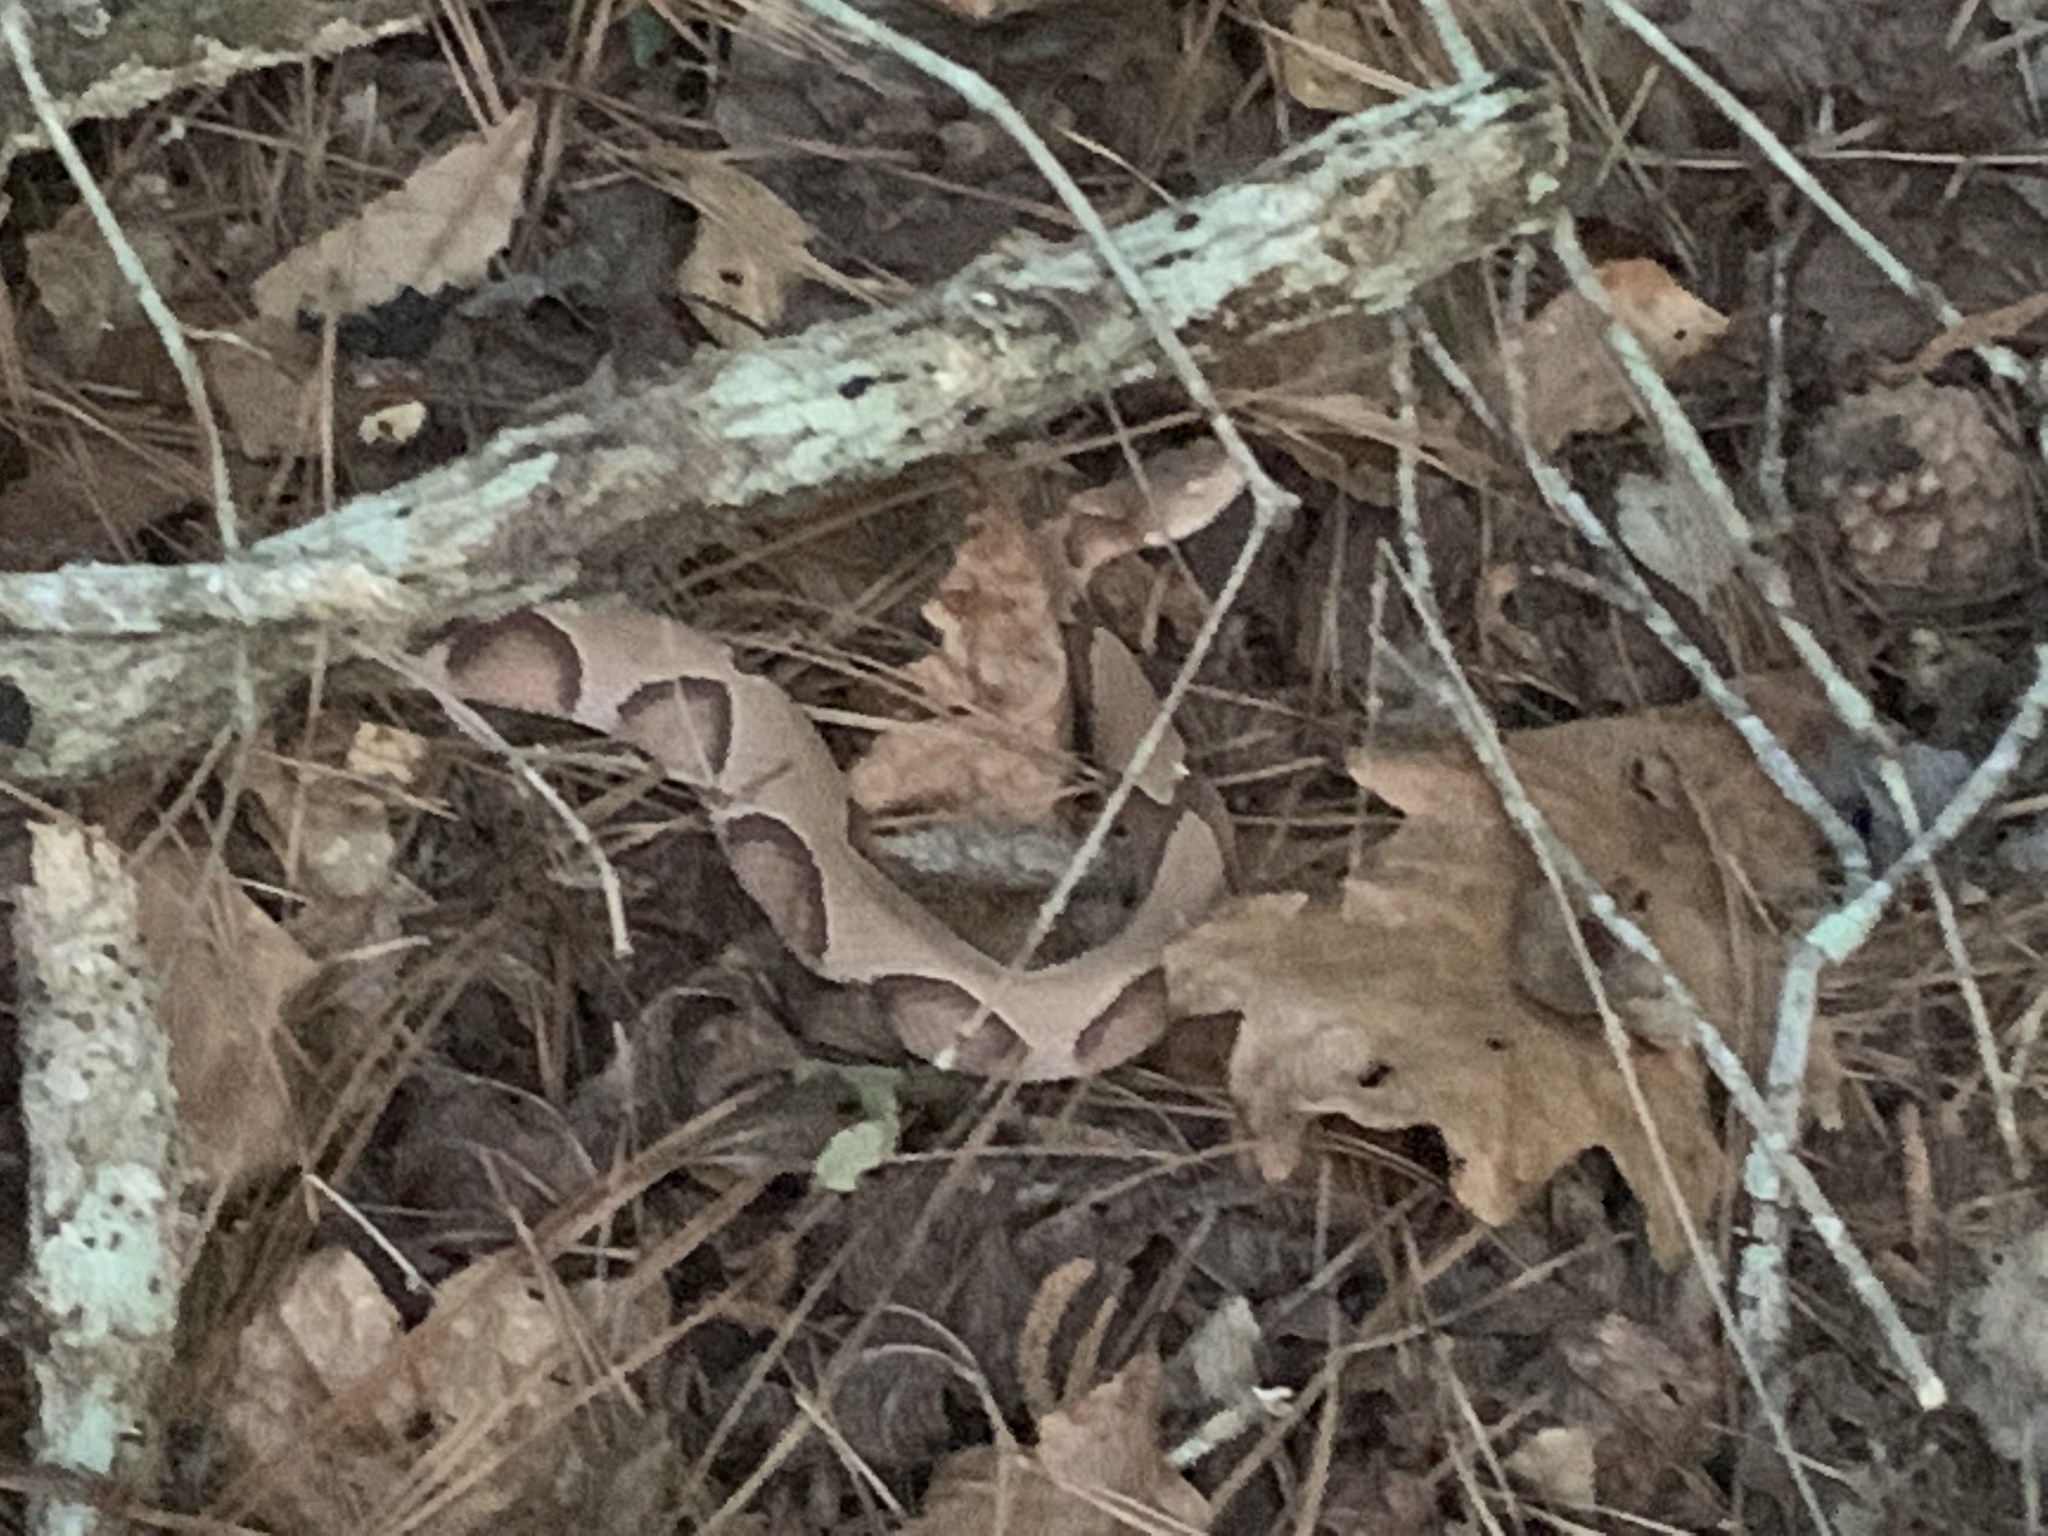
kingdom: Animalia
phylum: Chordata
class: Squamata
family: Viperidae
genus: Agkistrodon
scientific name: Agkistrodon contortrix
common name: Northern copperhead
